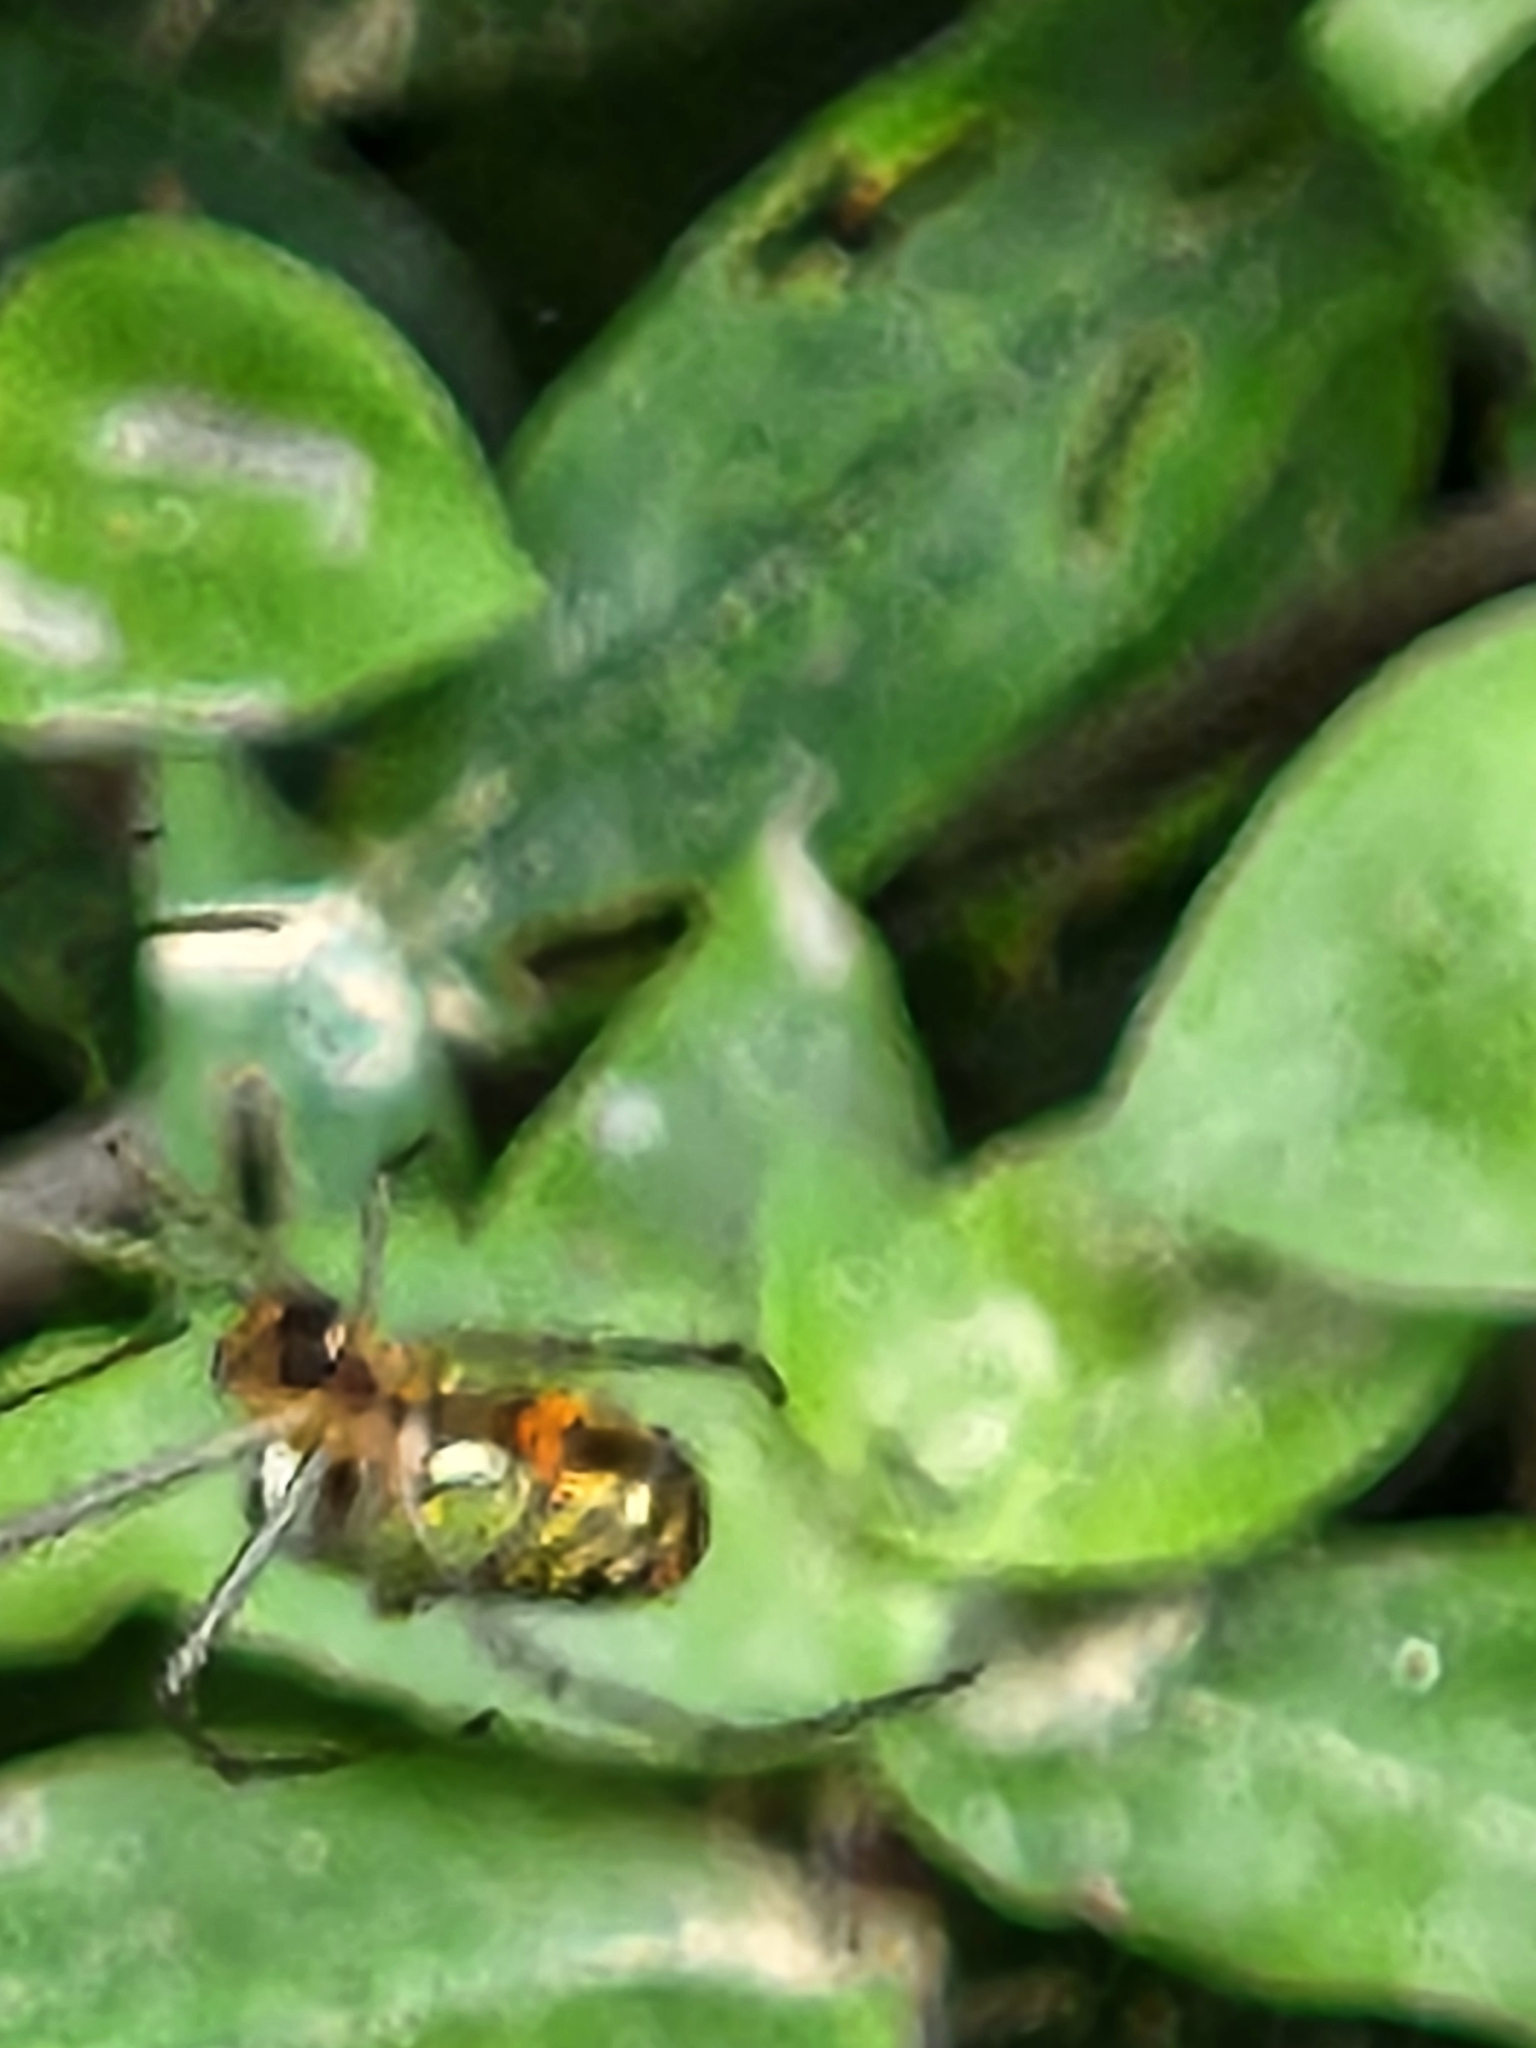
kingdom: Animalia
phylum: Arthropoda
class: Arachnida
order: Araneae
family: Tetragnathidae
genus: Leucauge
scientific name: Leucauge mariana
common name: Longjawed orb weavers
